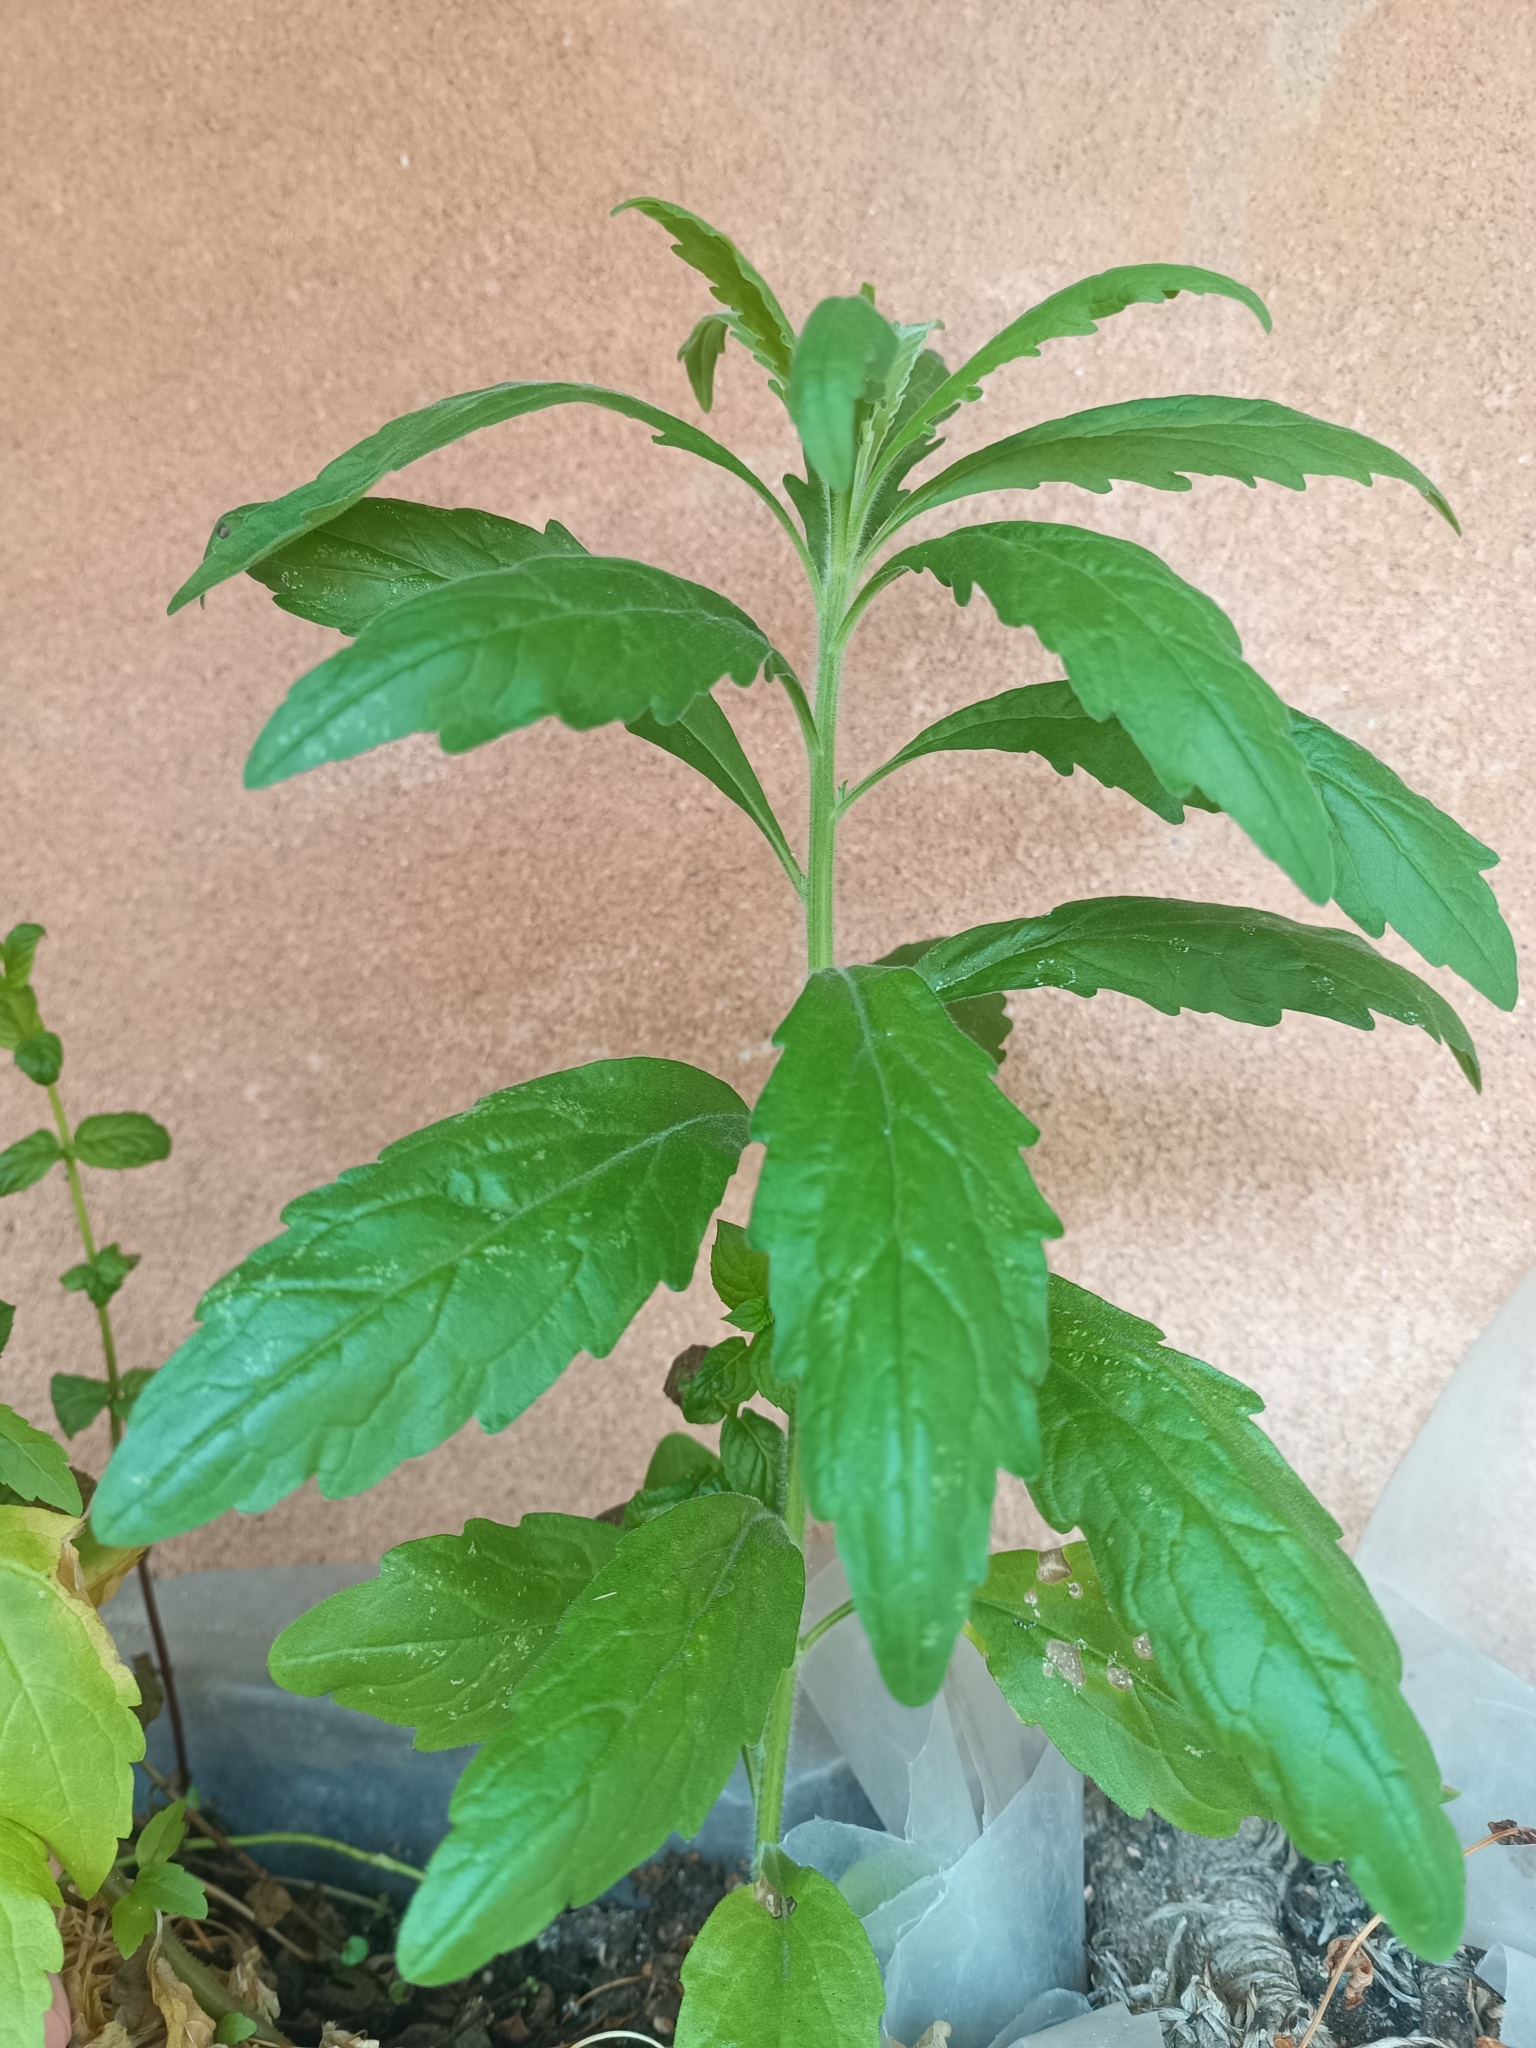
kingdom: Plantae
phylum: Tracheophyta
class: Magnoliopsida
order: Asterales
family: Asteraceae
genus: Erigeron
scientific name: Erigeron sumatrensis
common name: Daisy
